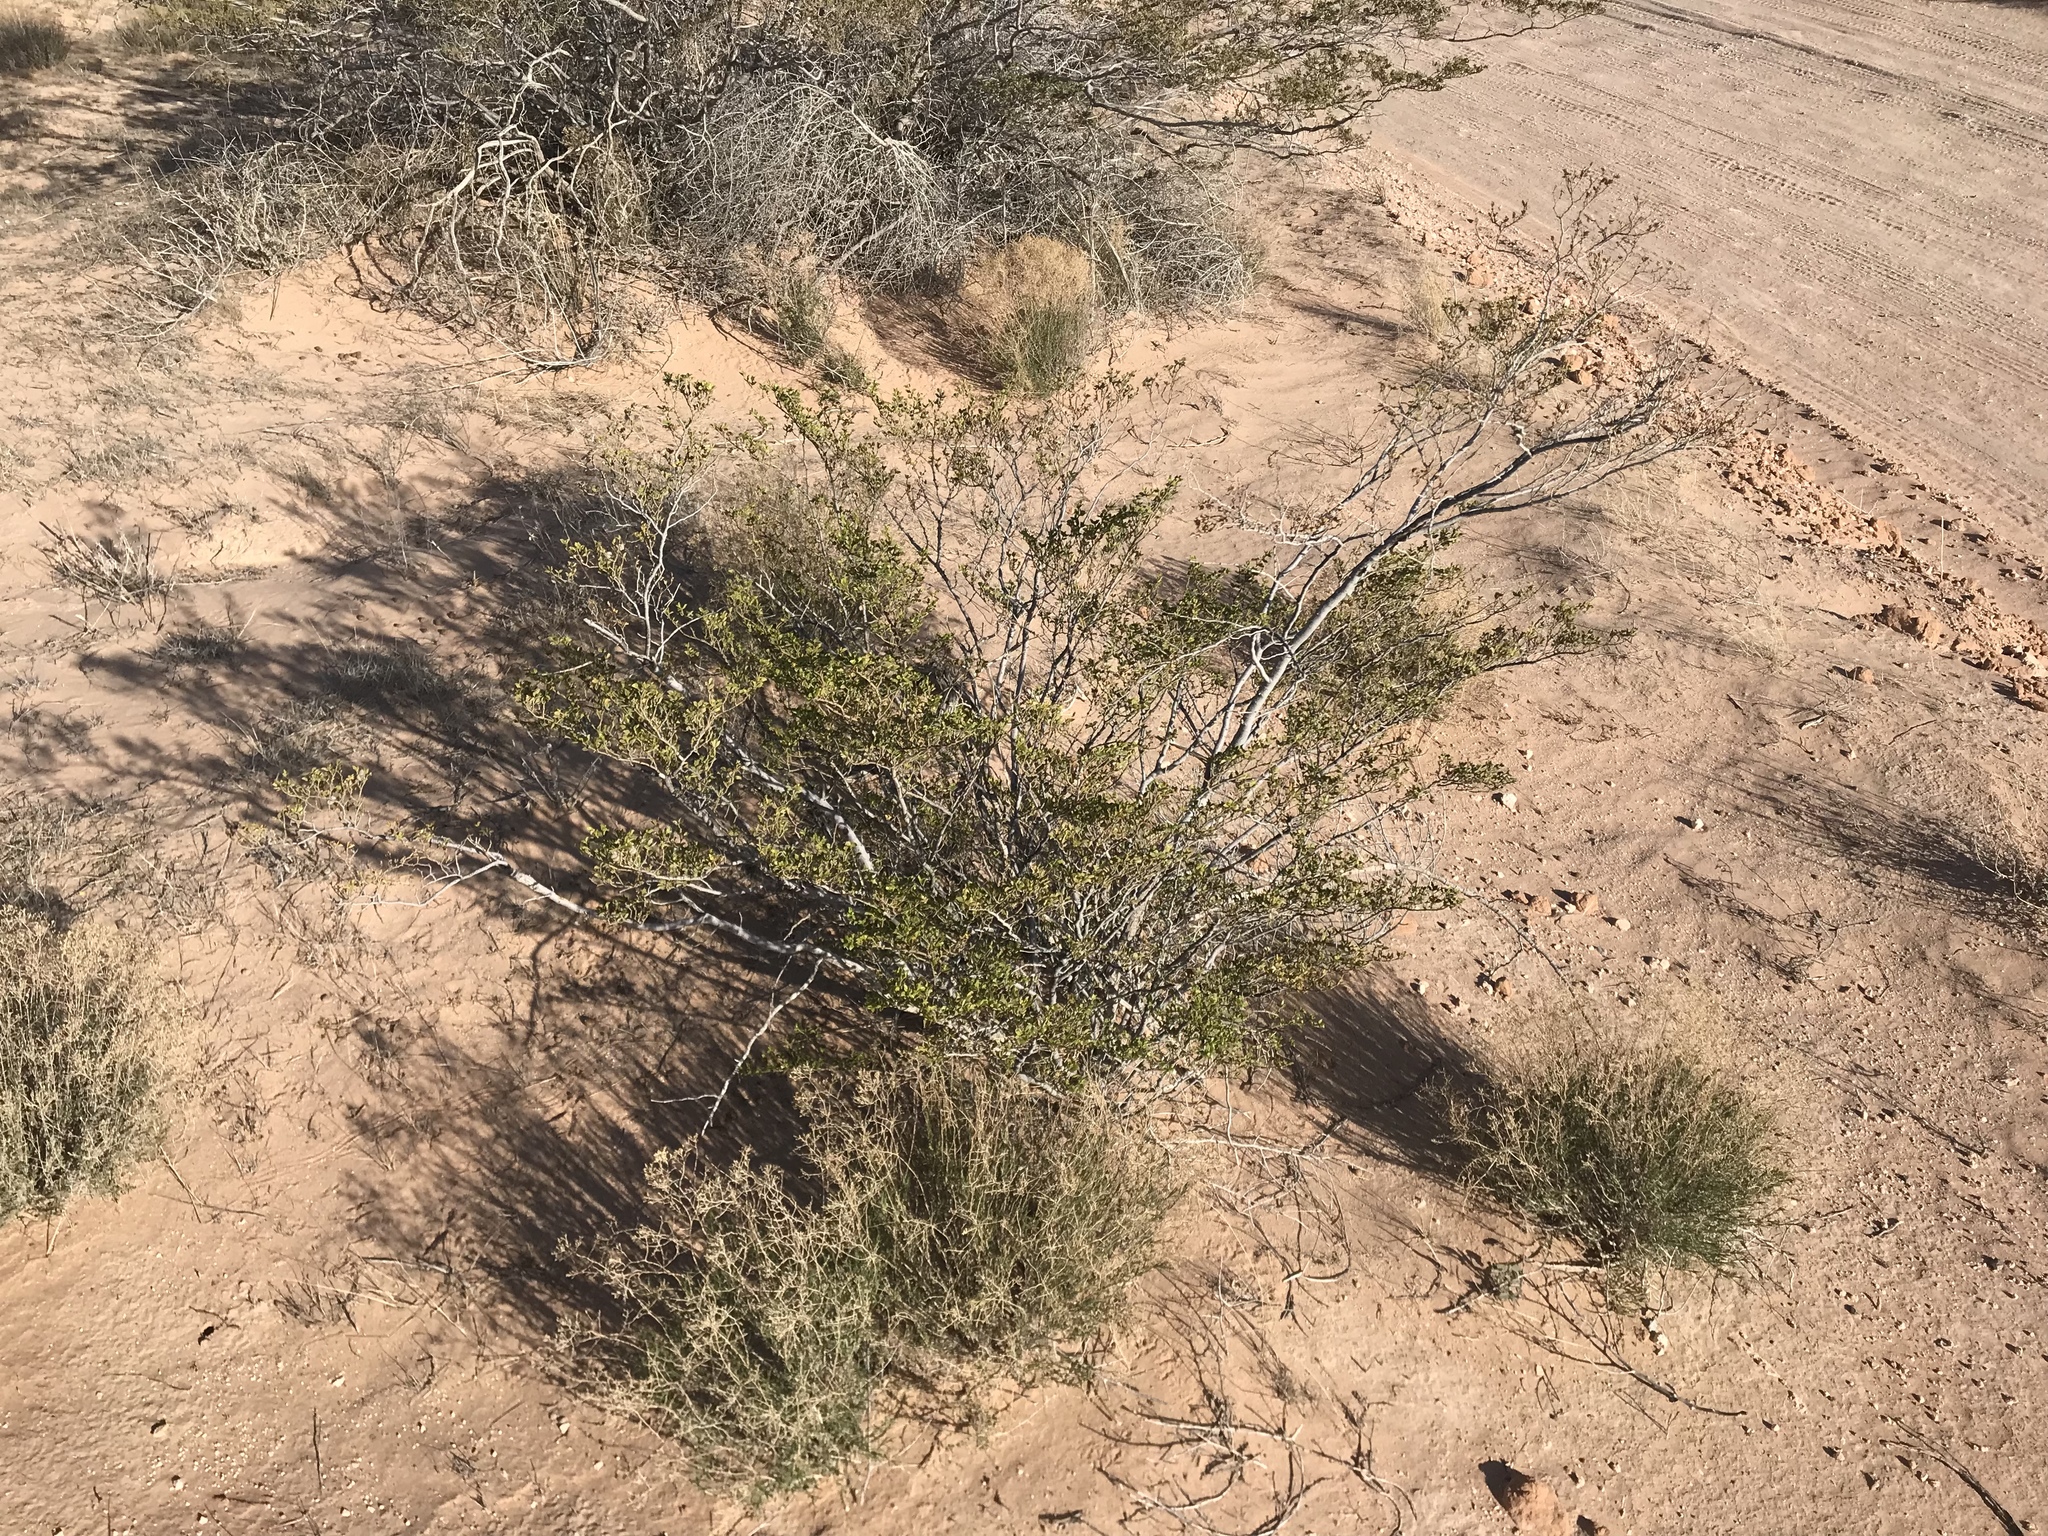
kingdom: Plantae
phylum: Tracheophyta
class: Magnoliopsida
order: Zygophyllales
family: Zygophyllaceae
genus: Larrea
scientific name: Larrea tridentata
